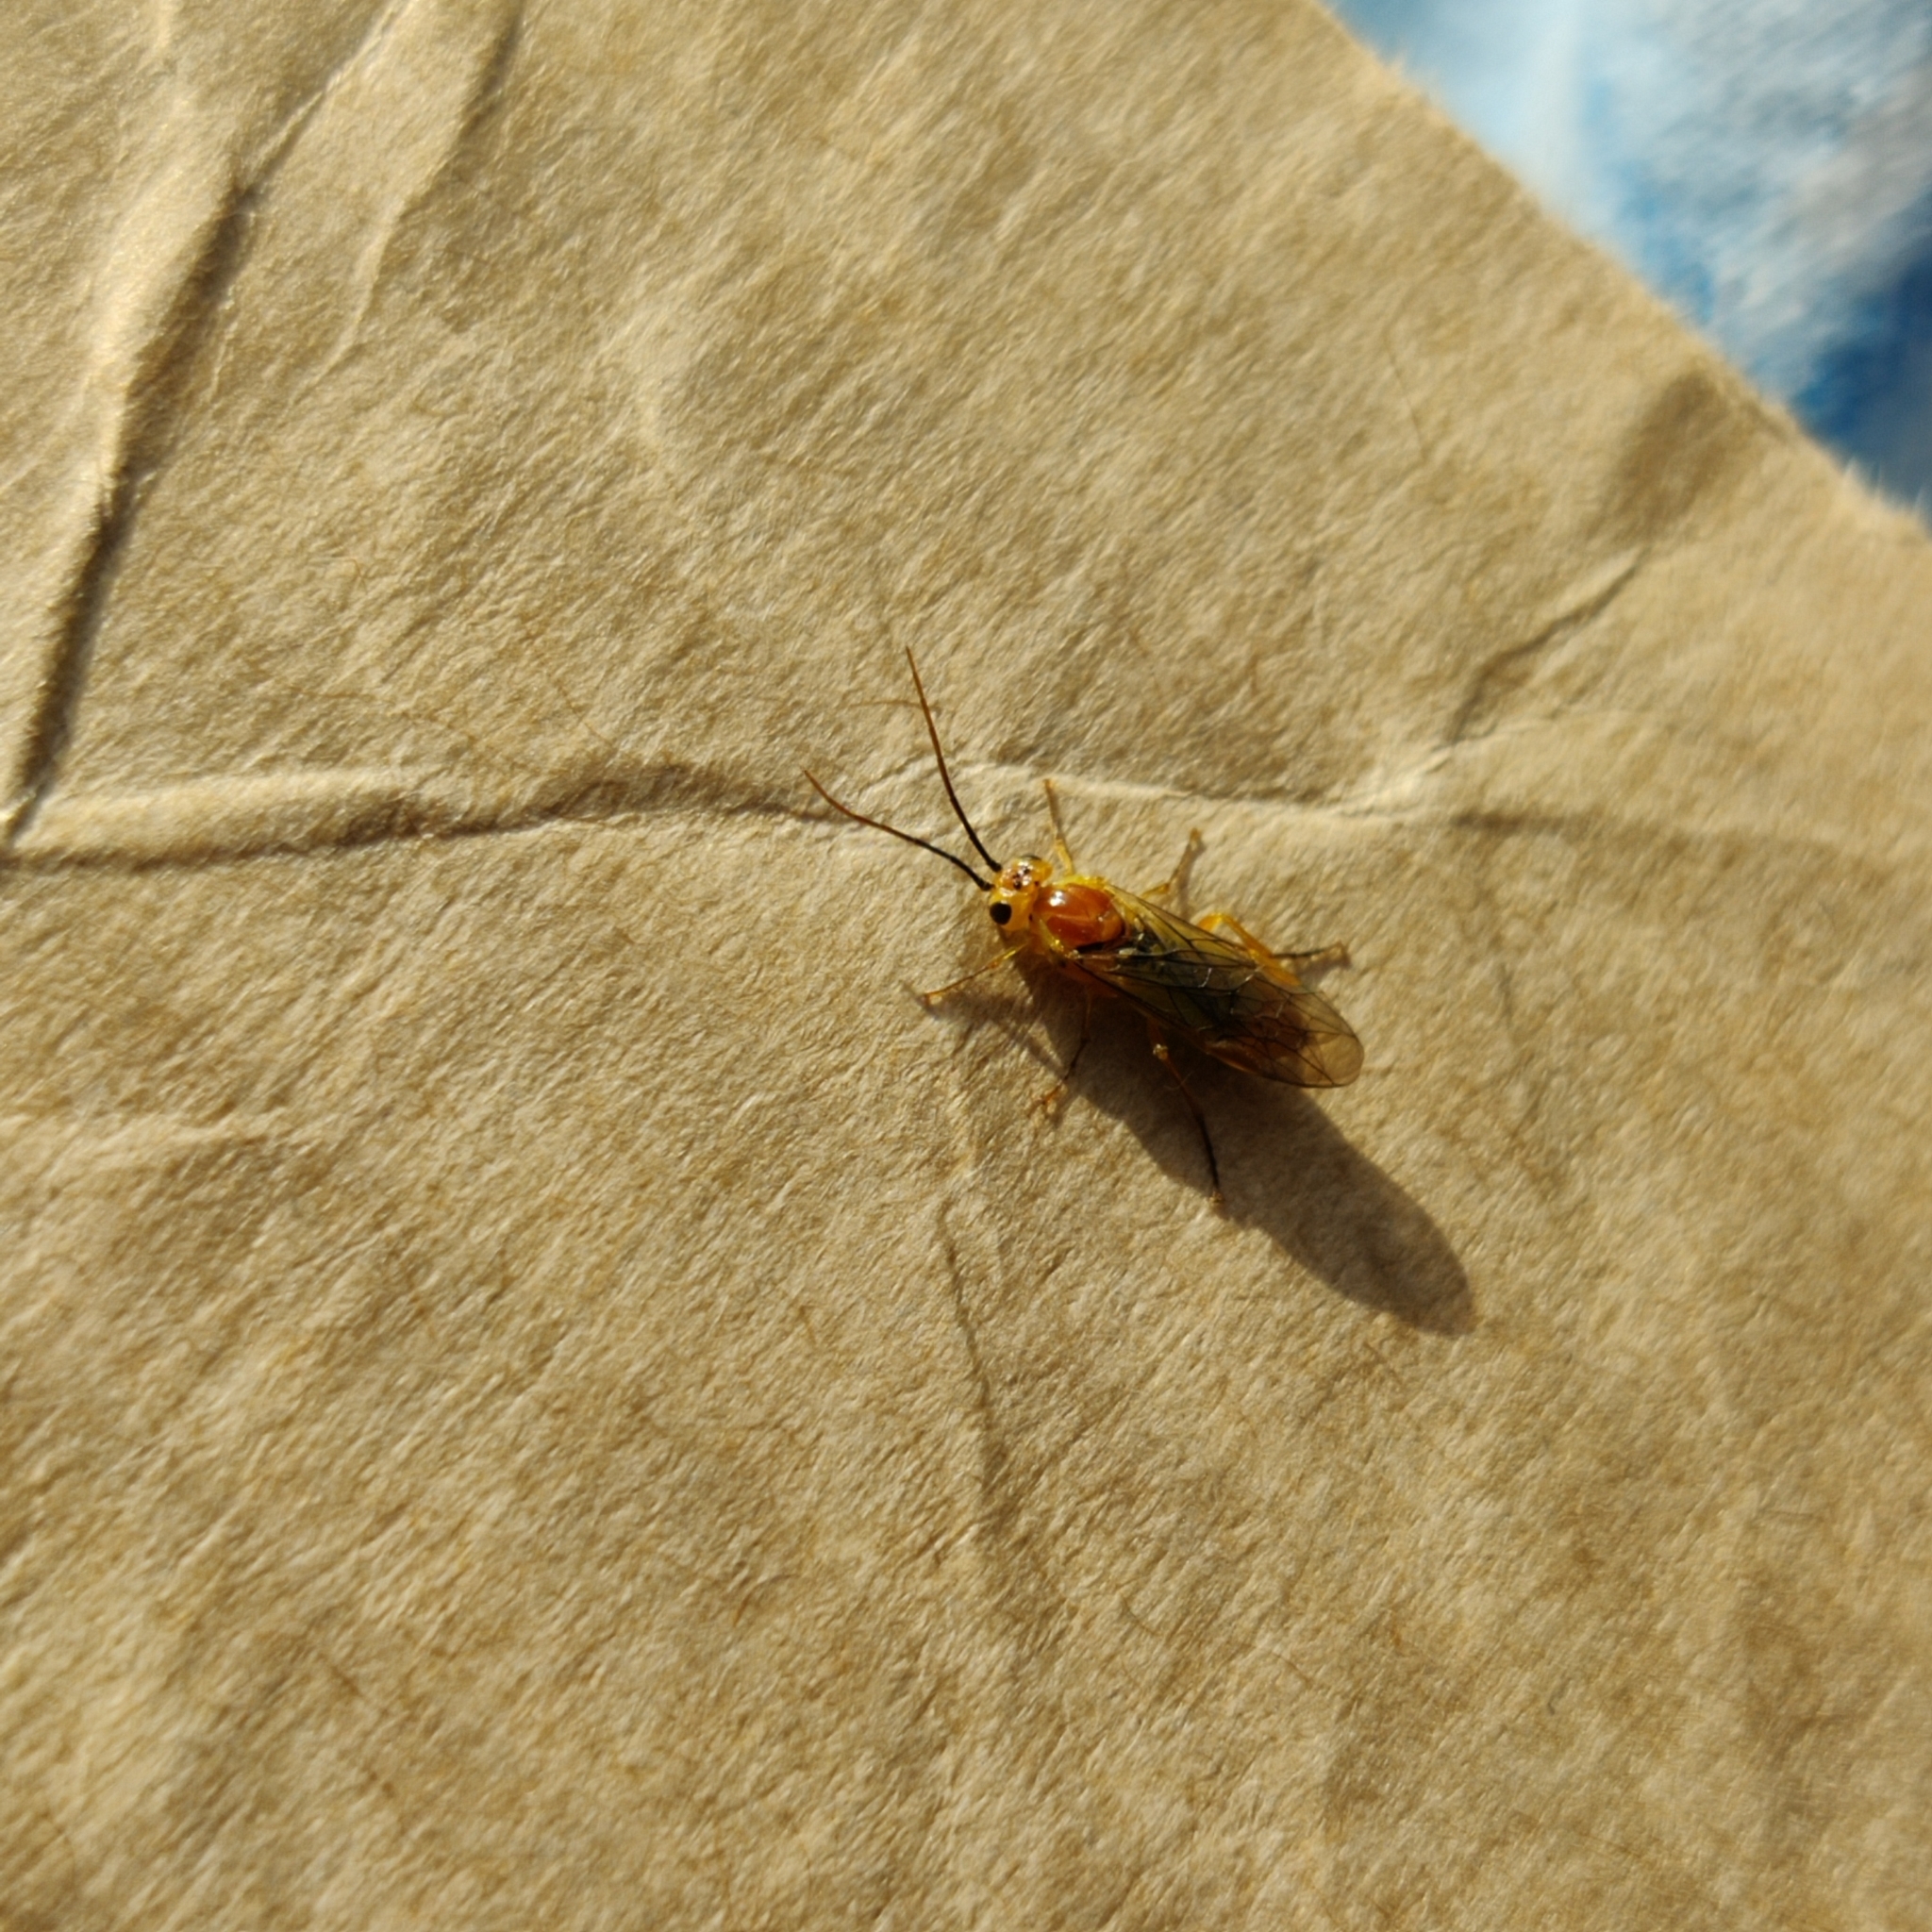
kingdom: Animalia
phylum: Arthropoda
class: Insecta
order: Hymenoptera
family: Tenthredinidae
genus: Nematus
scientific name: Nematus respondens
